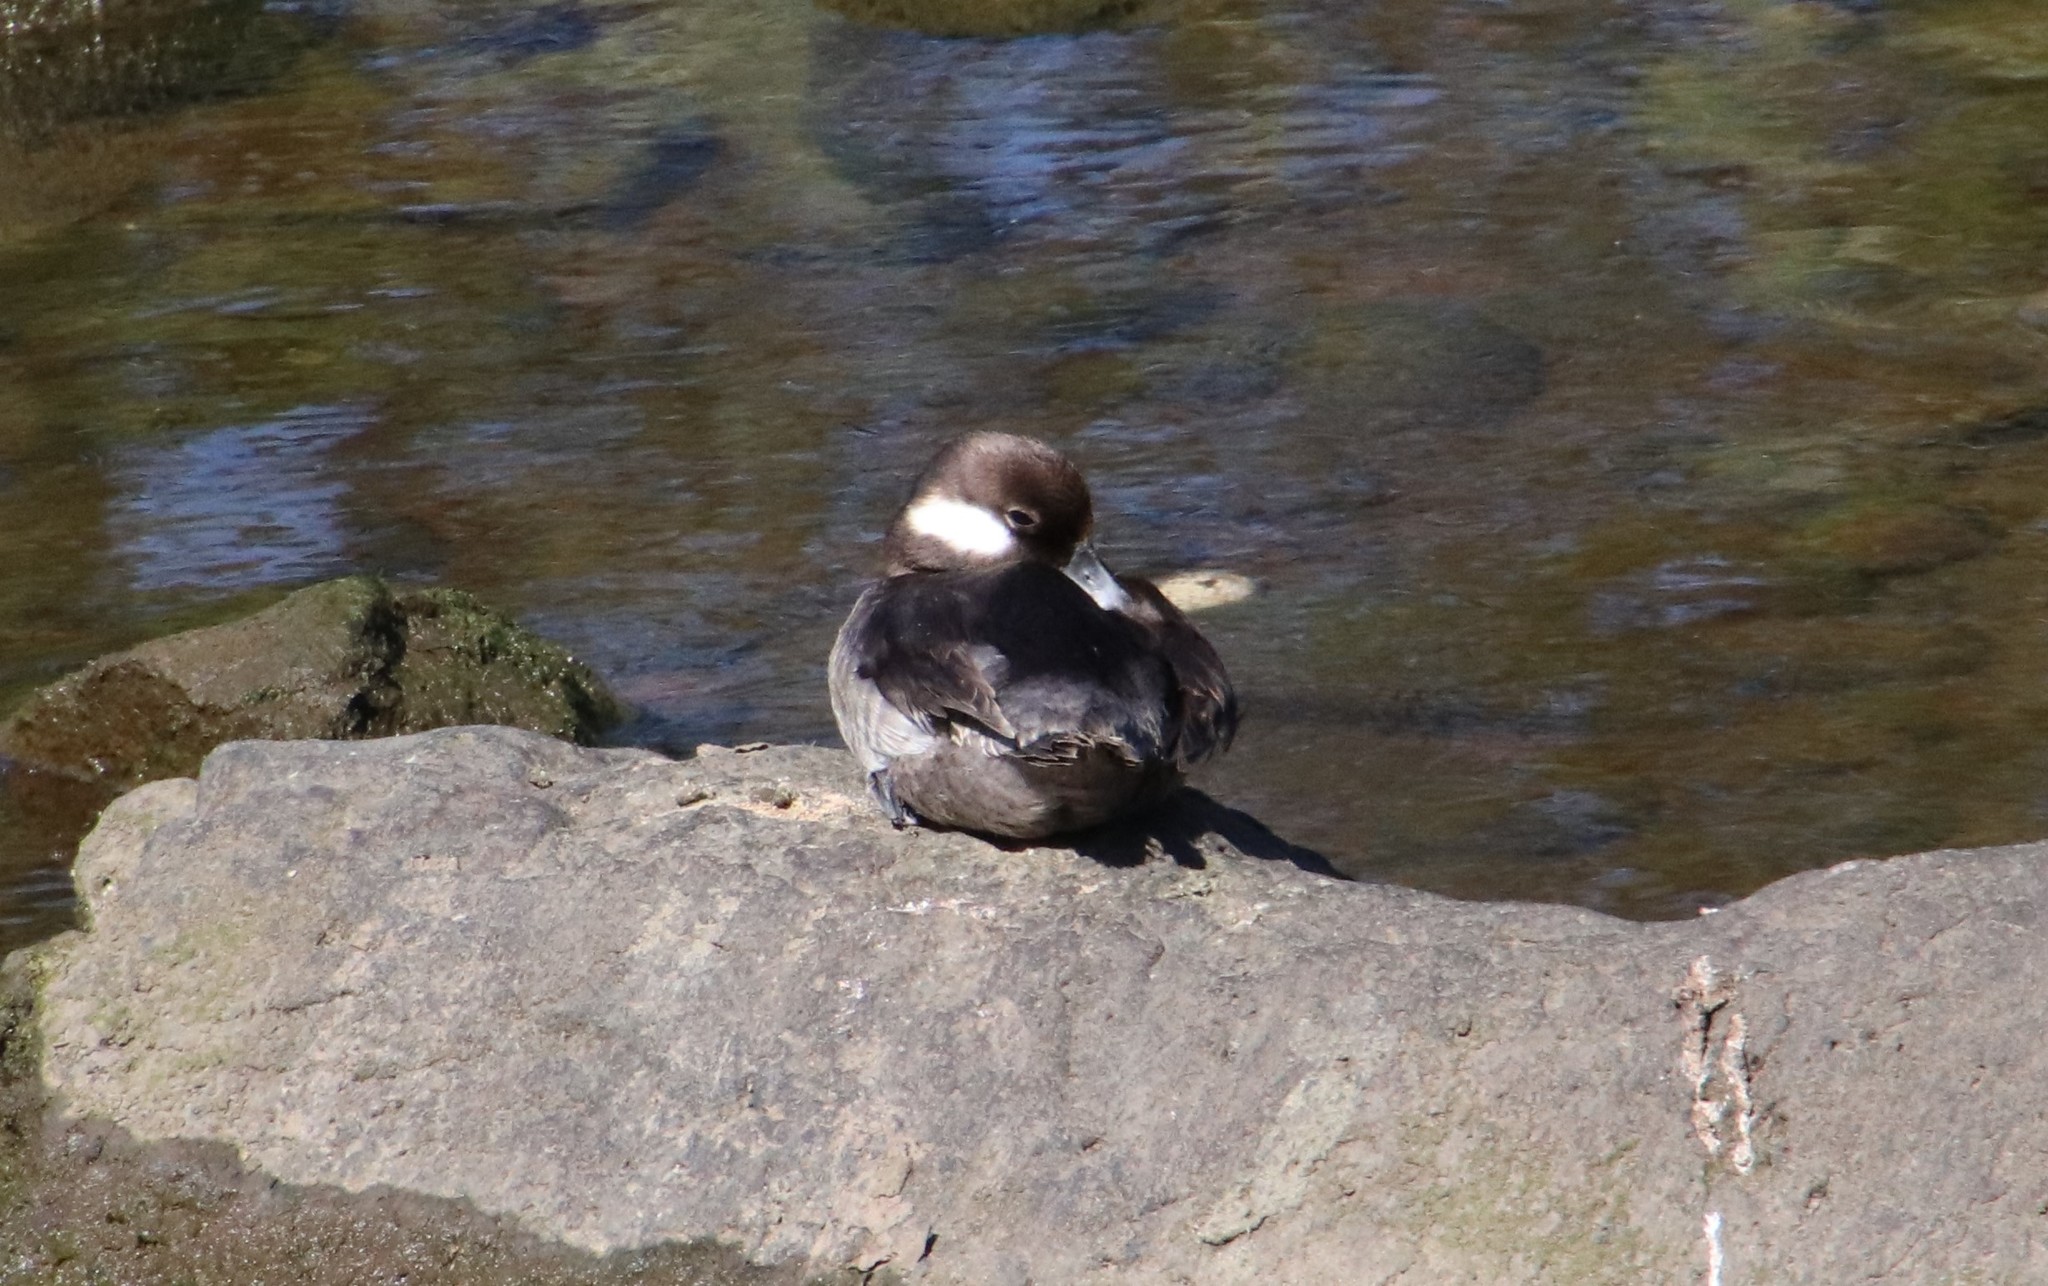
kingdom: Animalia
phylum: Chordata
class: Aves
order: Anseriformes
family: Anatidae
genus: Bucephala
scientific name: Bucephala albeola
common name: Bufflehead
